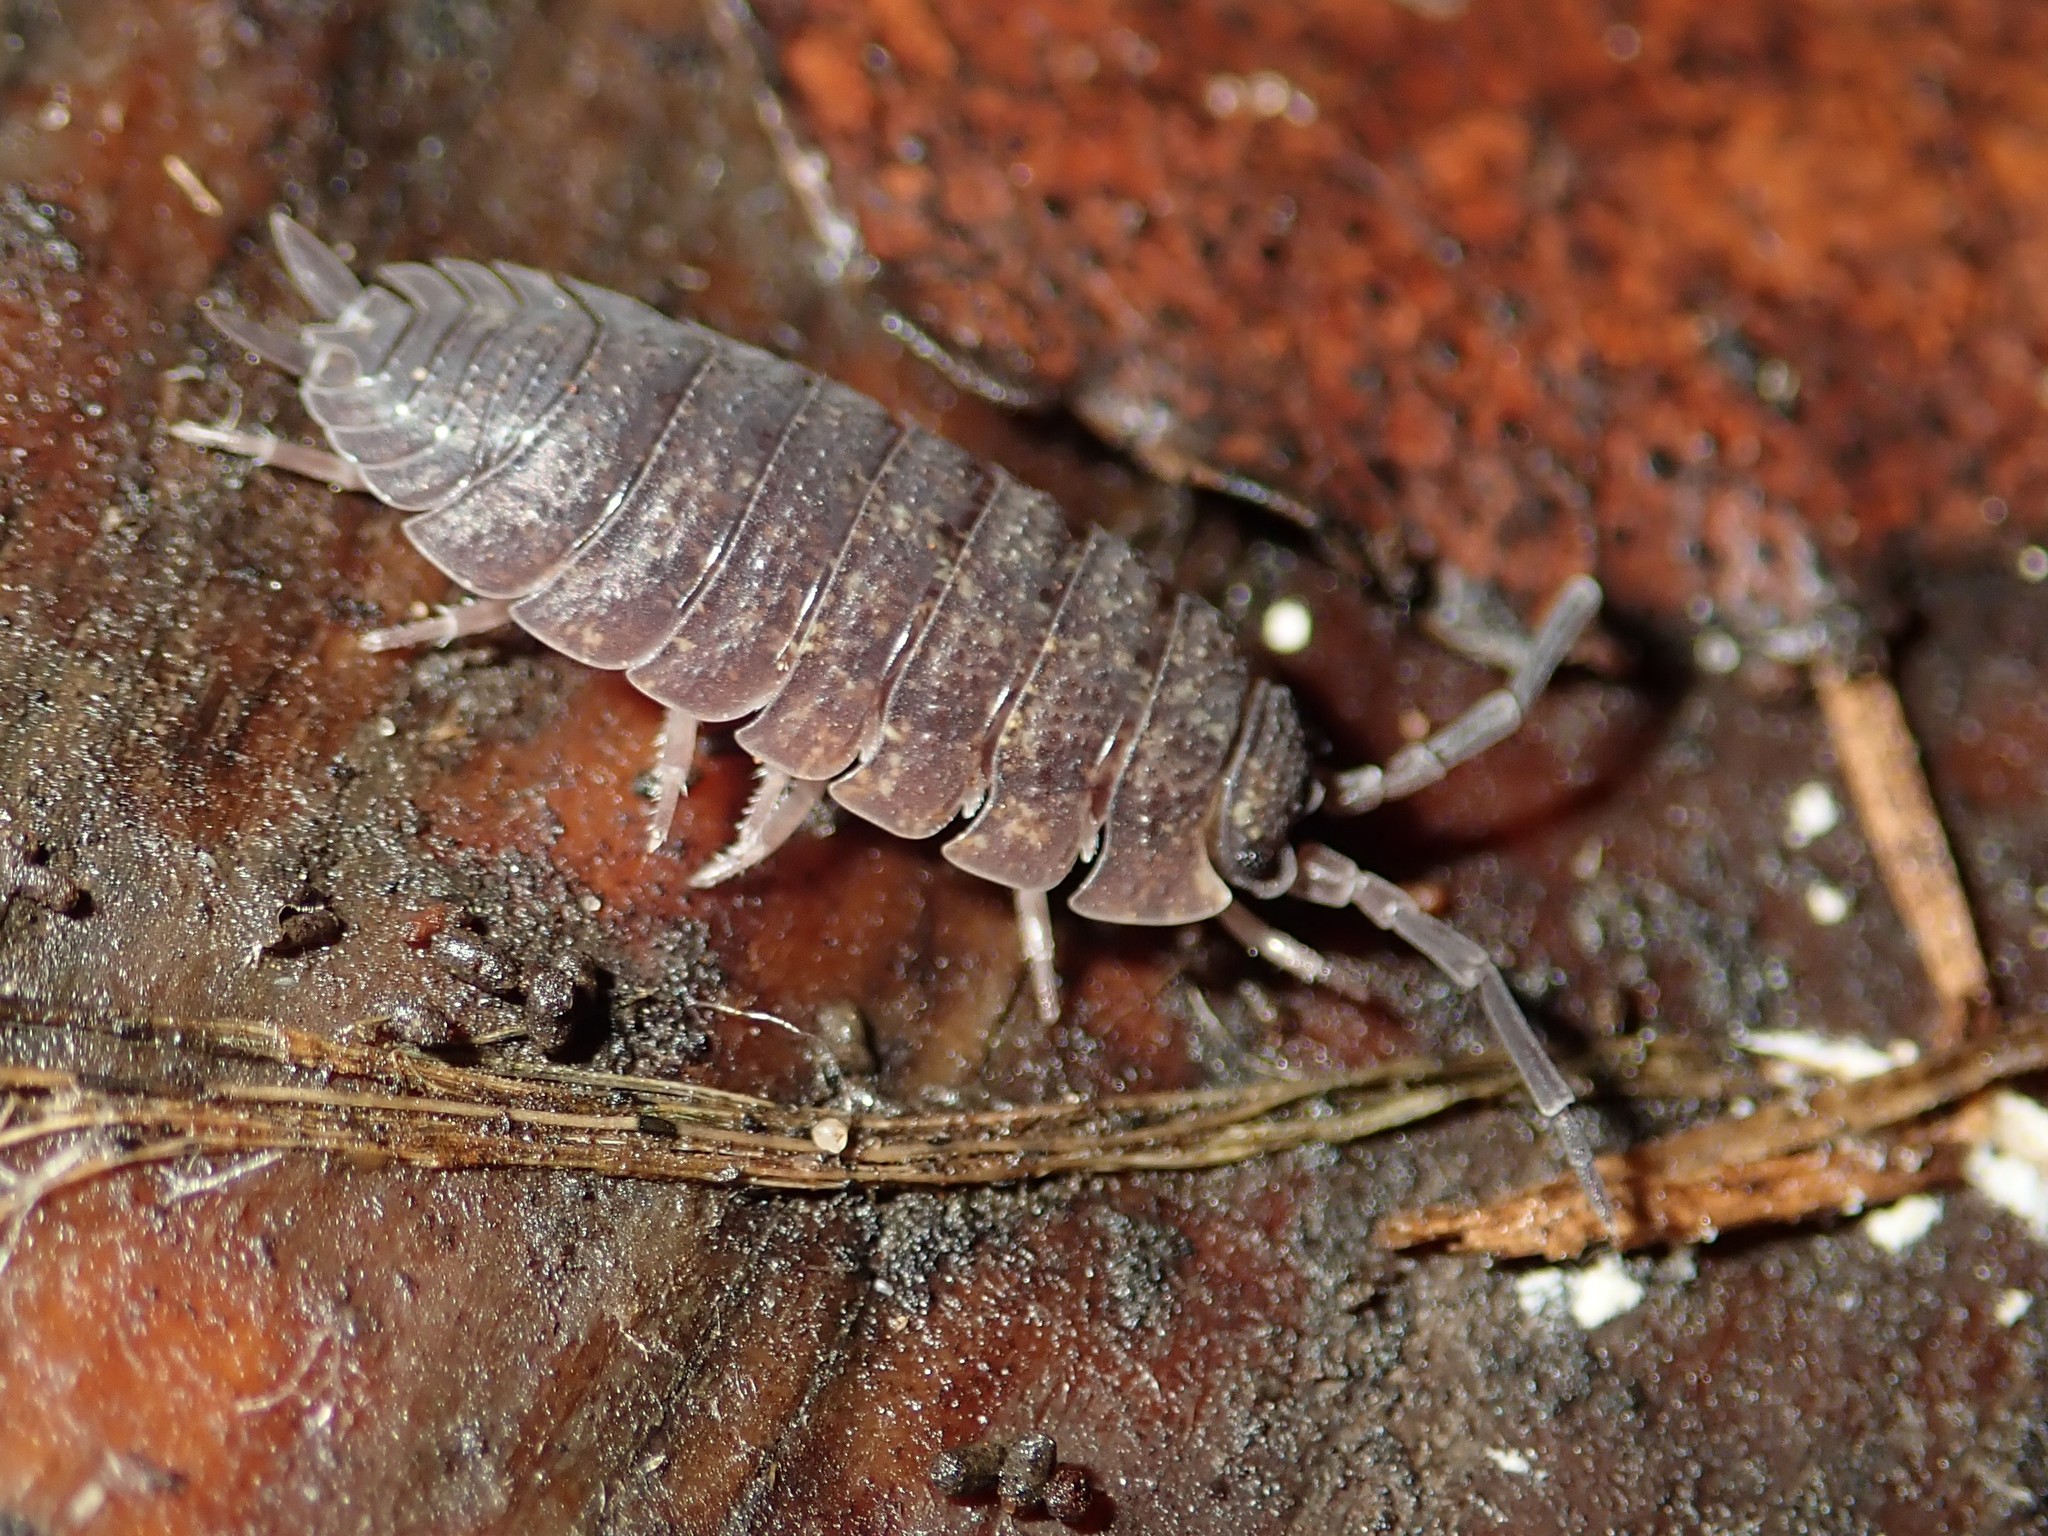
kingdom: Animalia
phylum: Arthropoda
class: Malacostraca
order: Isopoda
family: Porcellionidae
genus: Porcellio
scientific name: Porcellio scaber
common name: Common rough woodlouse
